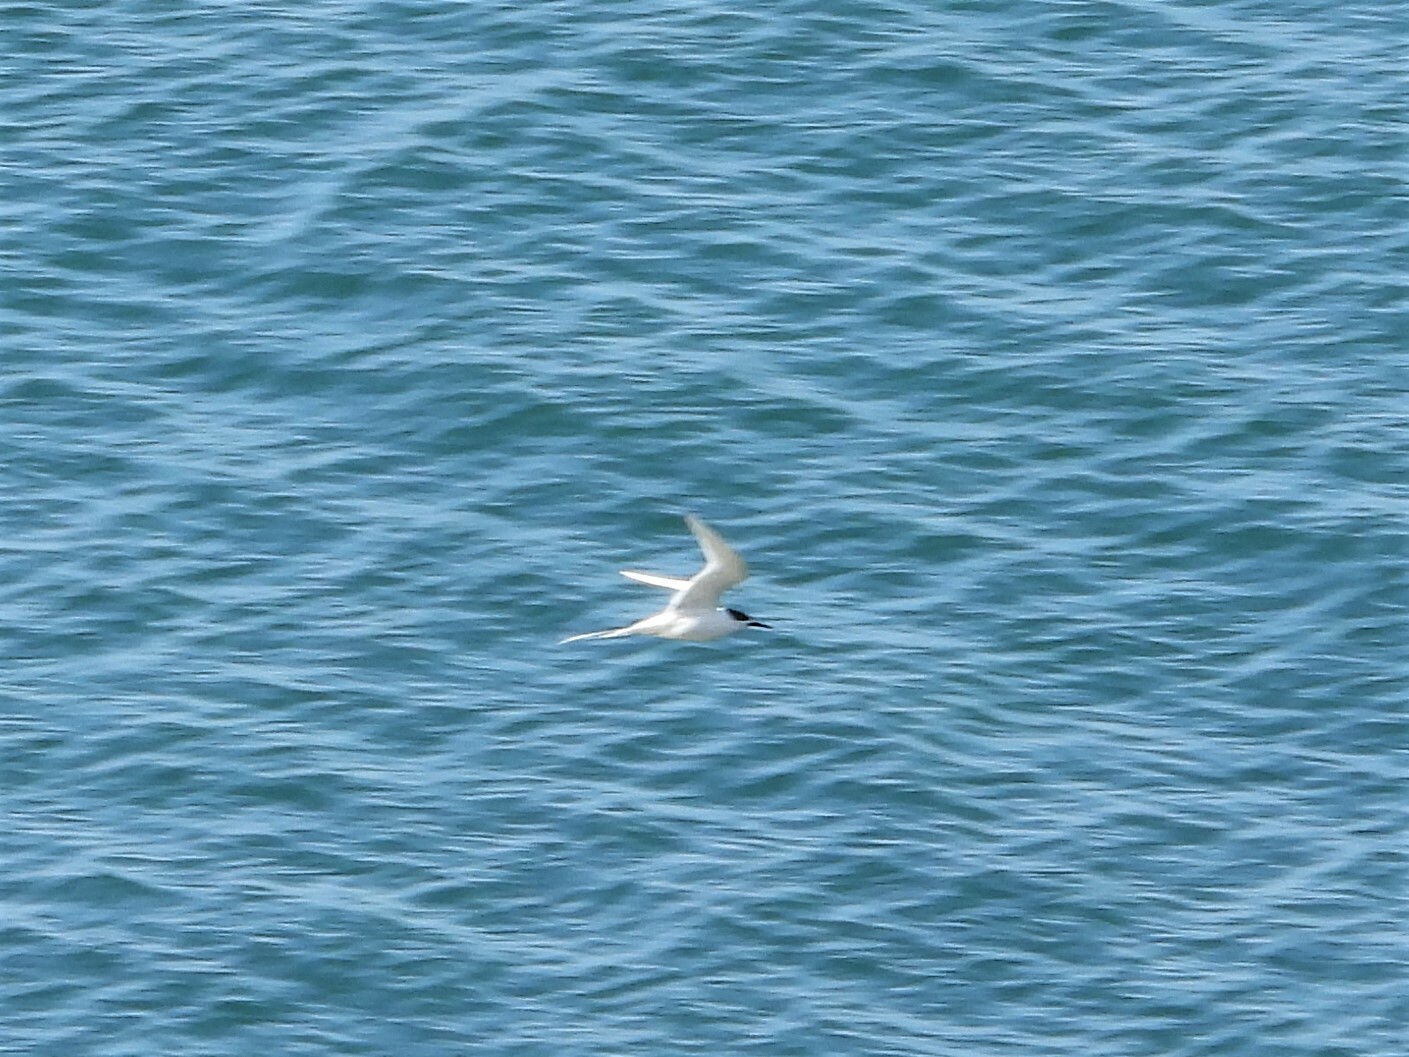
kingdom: Animalia
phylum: Chordata
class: Aves
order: Charadriiformes
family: Laridae
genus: Sterna
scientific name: Sterna striata
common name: White-fronted tern
